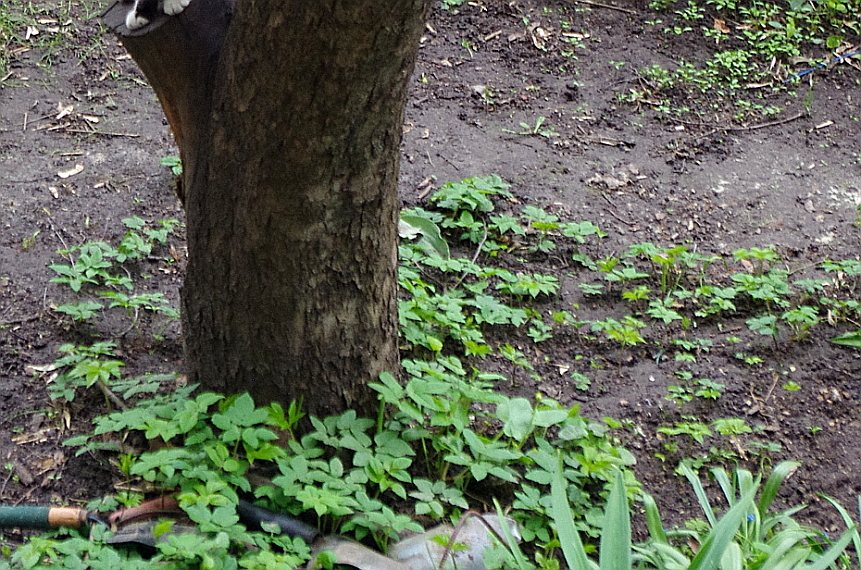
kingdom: Plantae
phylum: Tracheophyta
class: Magnoliopsida
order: Apiales
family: Apiaceae
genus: Aegopodium
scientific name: Aegopodium podagraria
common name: Ground-elder
